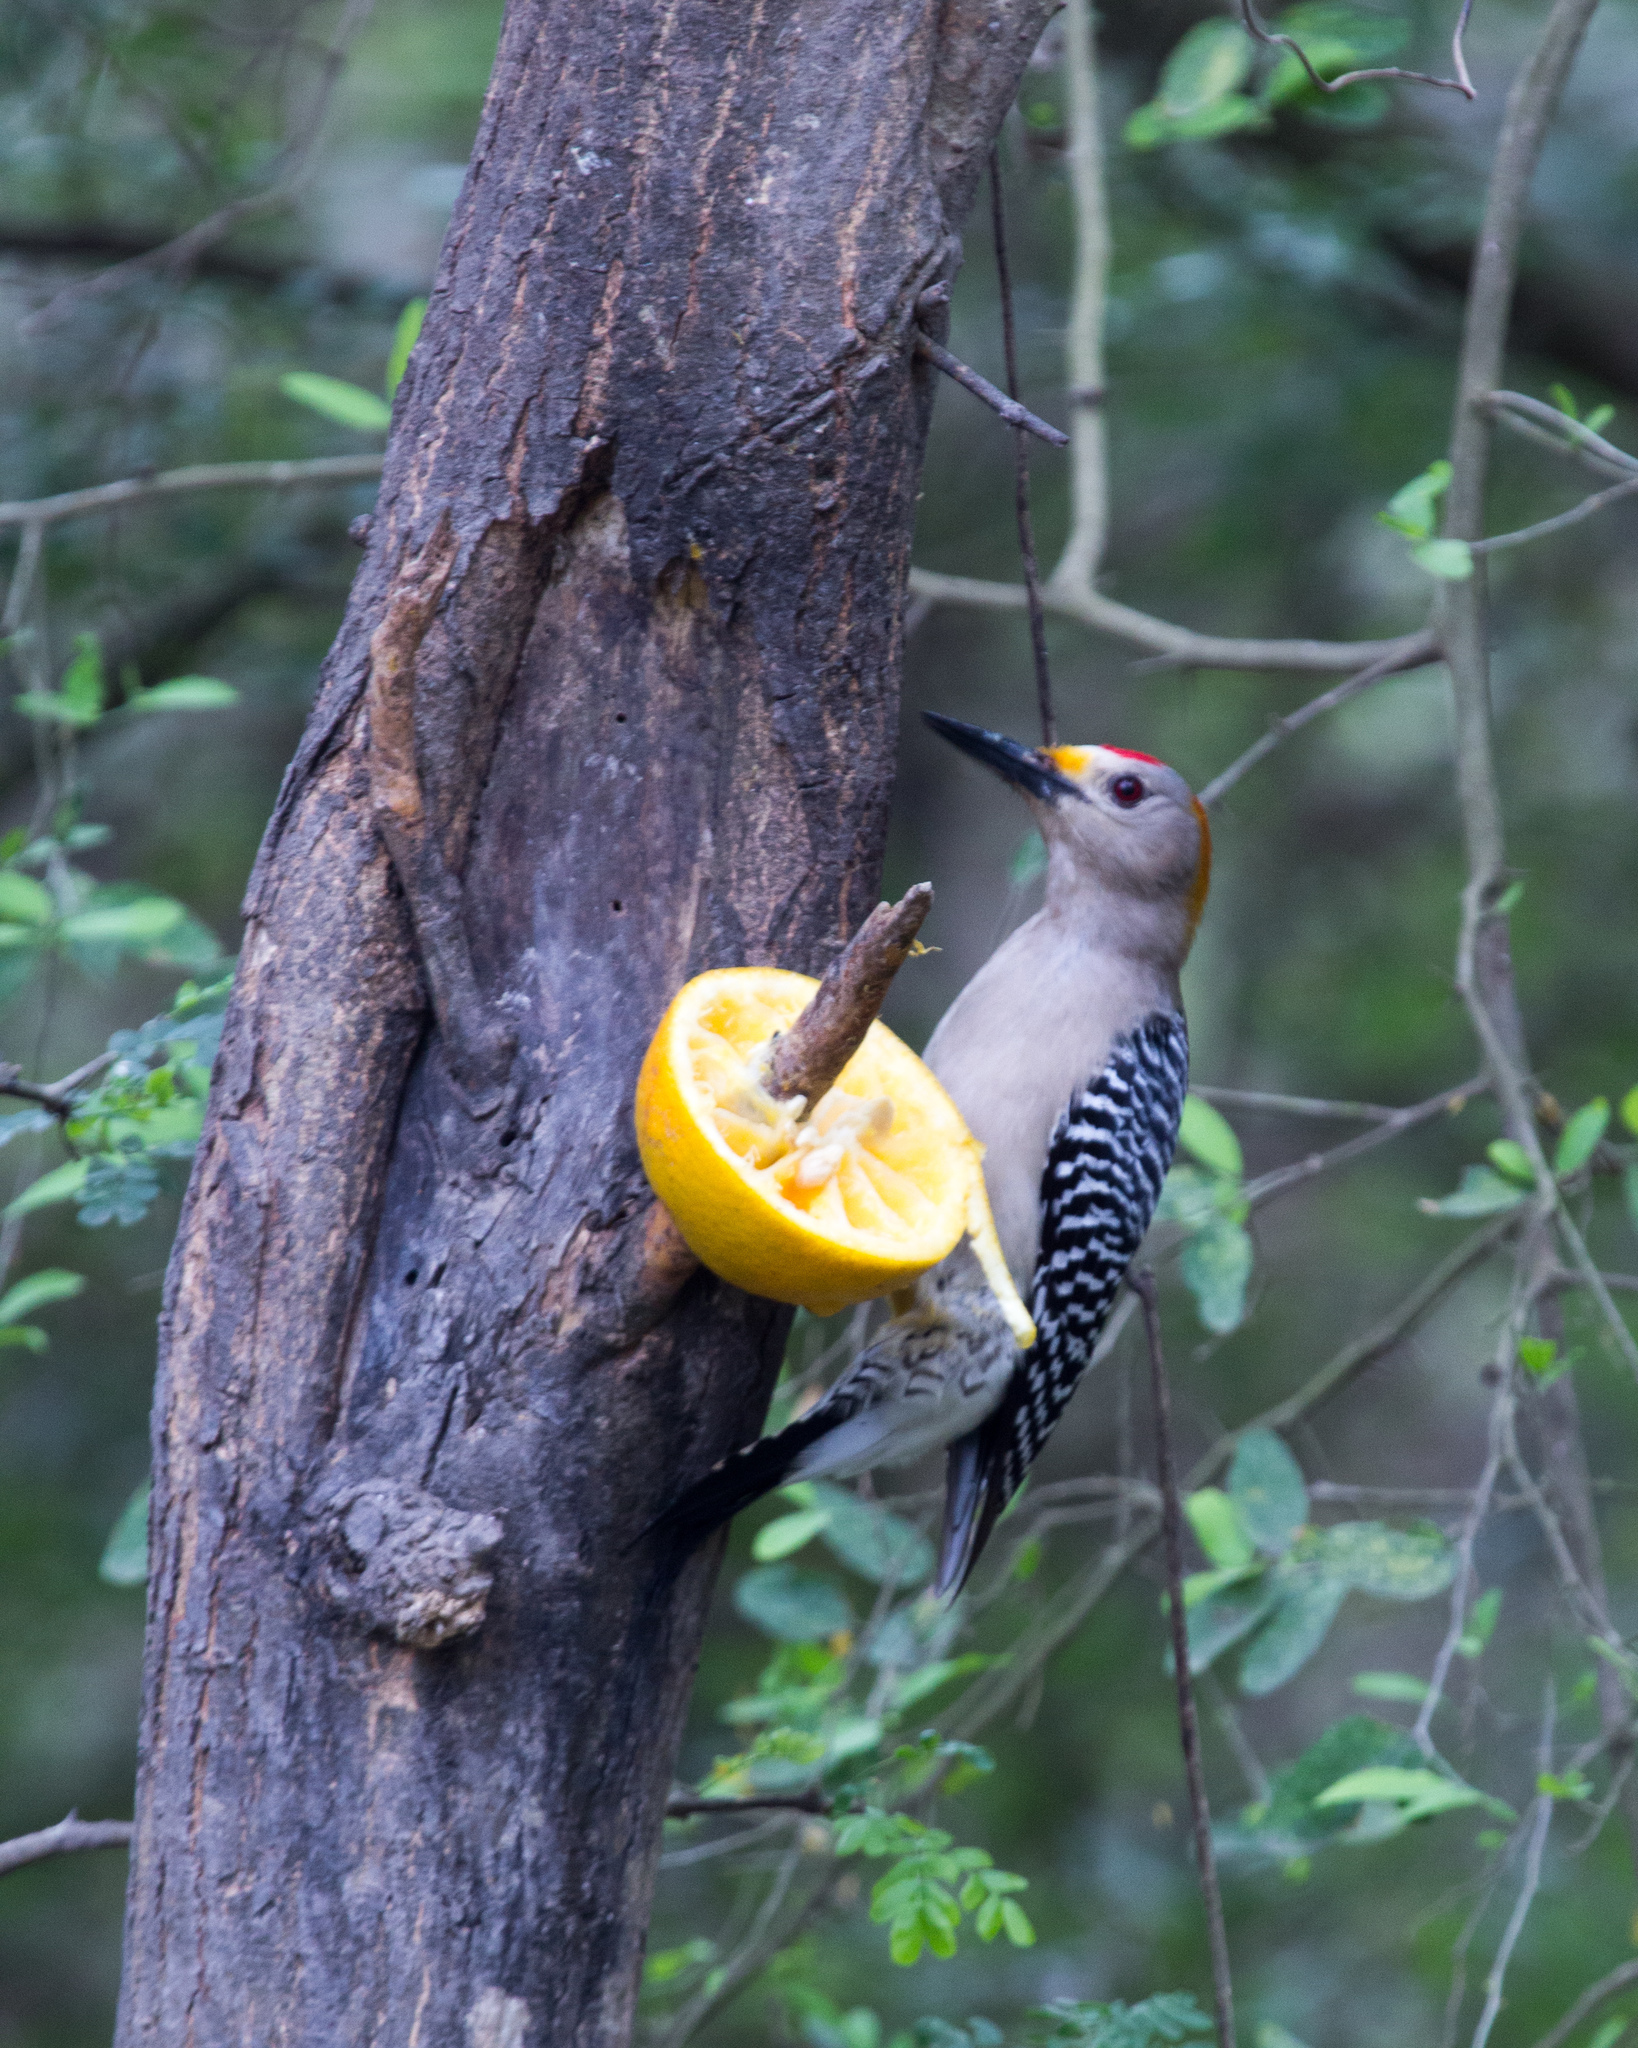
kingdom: Animalia
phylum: Chordata
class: Aves
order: Piciformes
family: Picidae
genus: Melanerpes
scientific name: Melanerpes aurifrons
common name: Golden-fronted woodpecker
